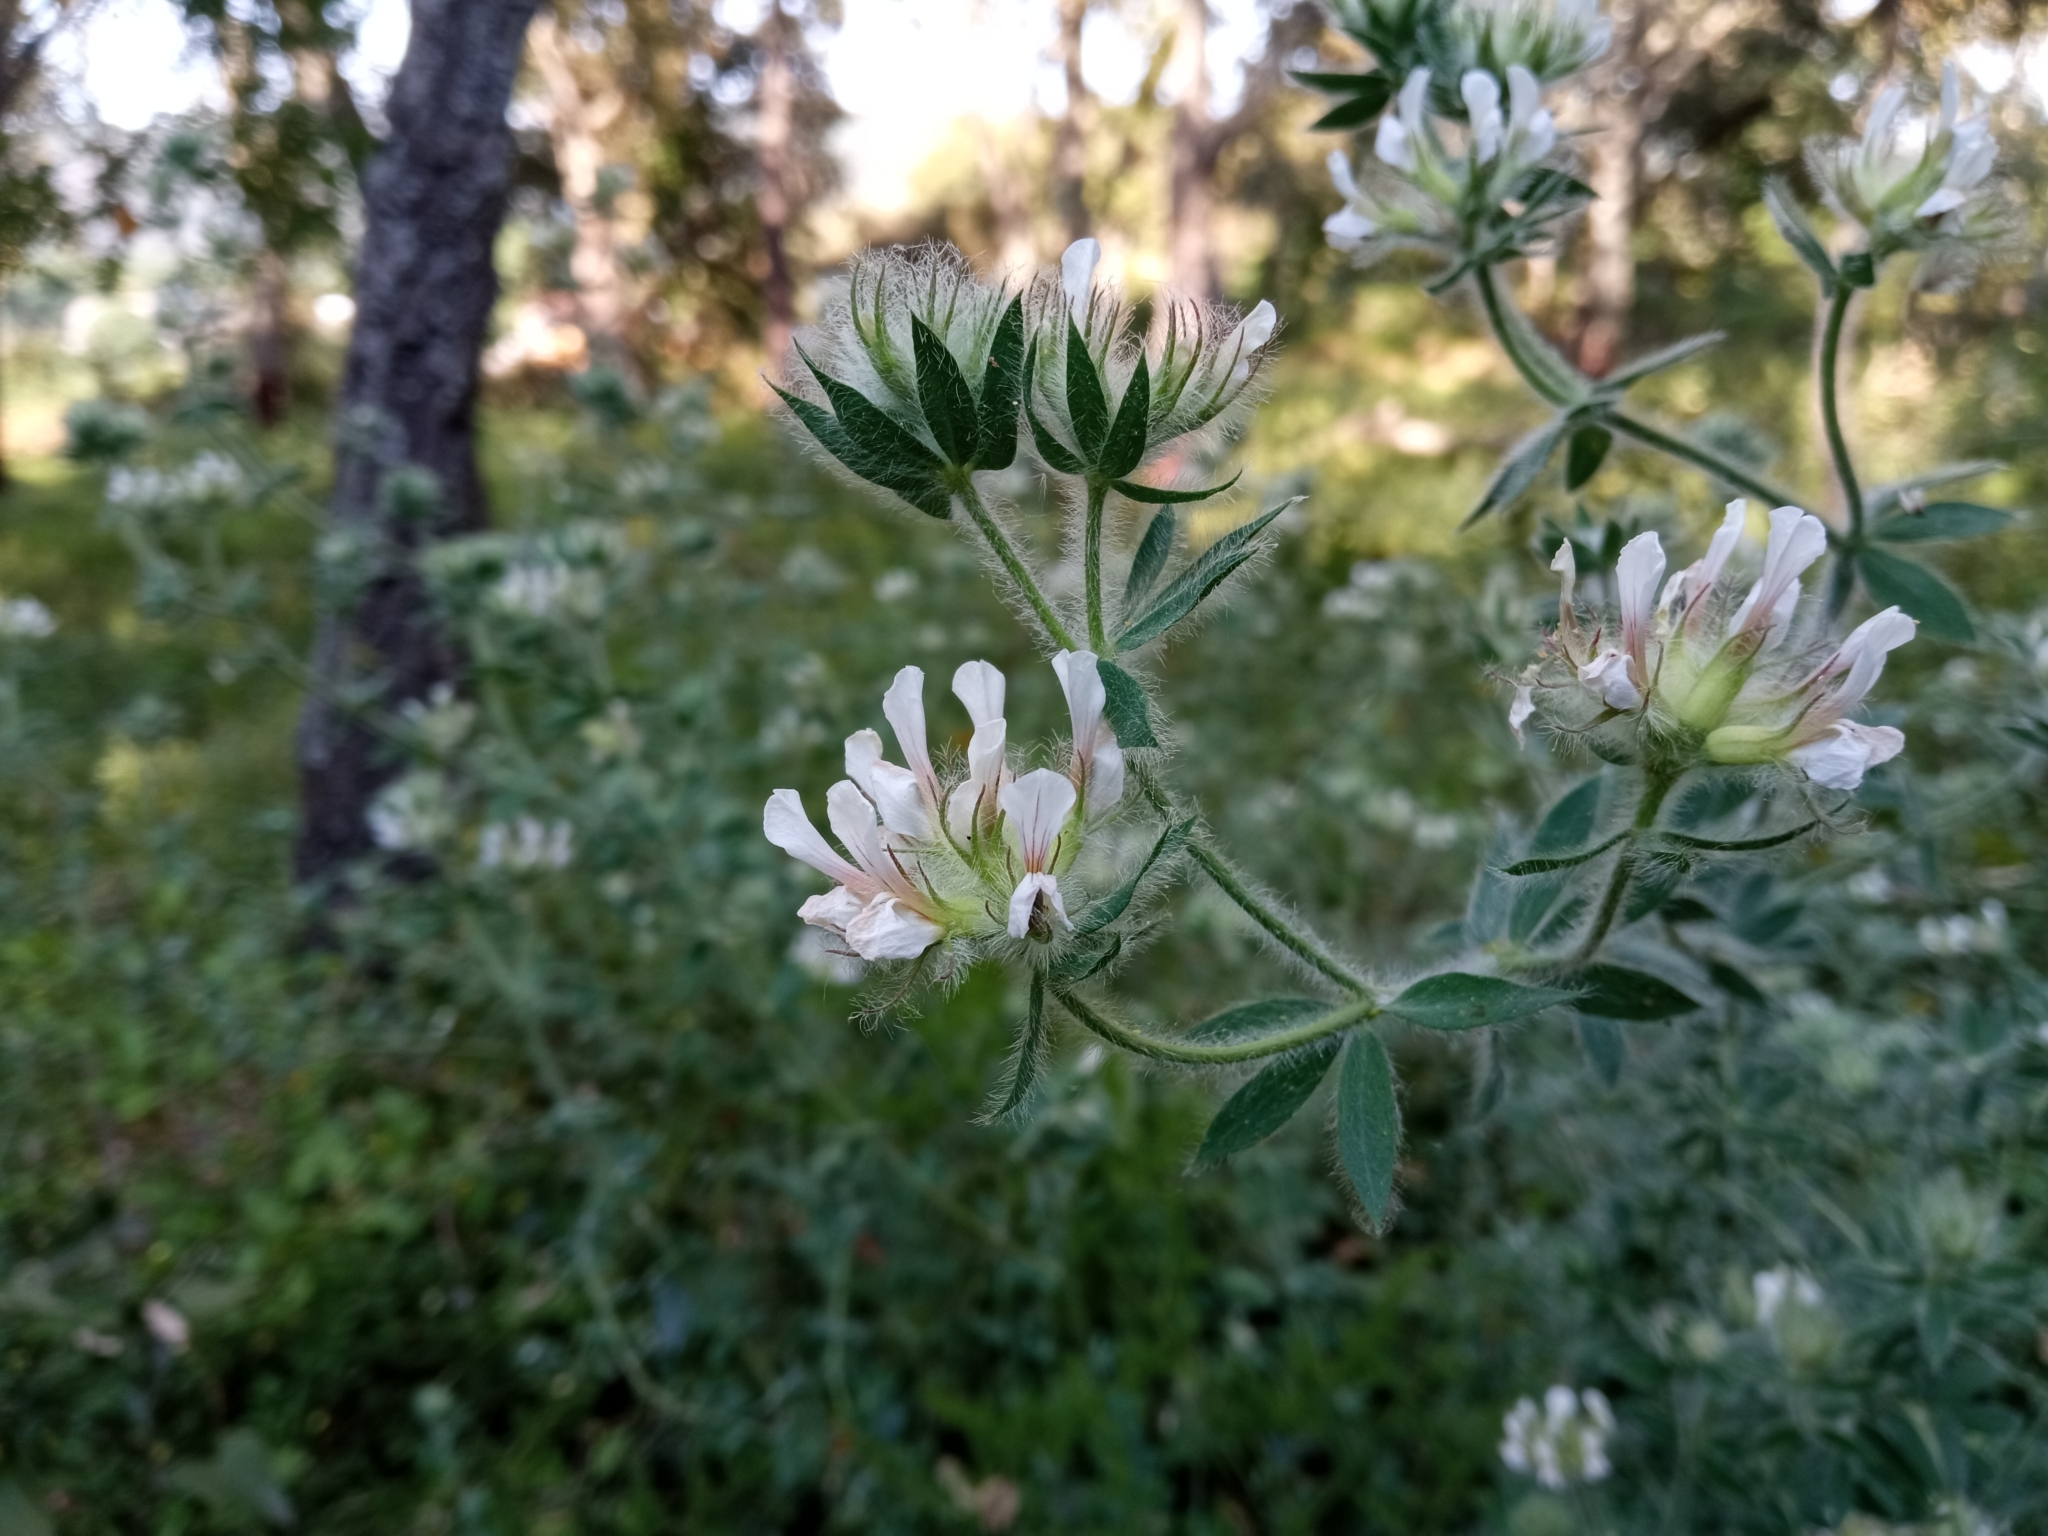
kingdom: Plantae
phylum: Tracheophyta
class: Magnoliopsida
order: Fabales
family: Fabaceae
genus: Lotus
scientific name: Lotus hirsutus
